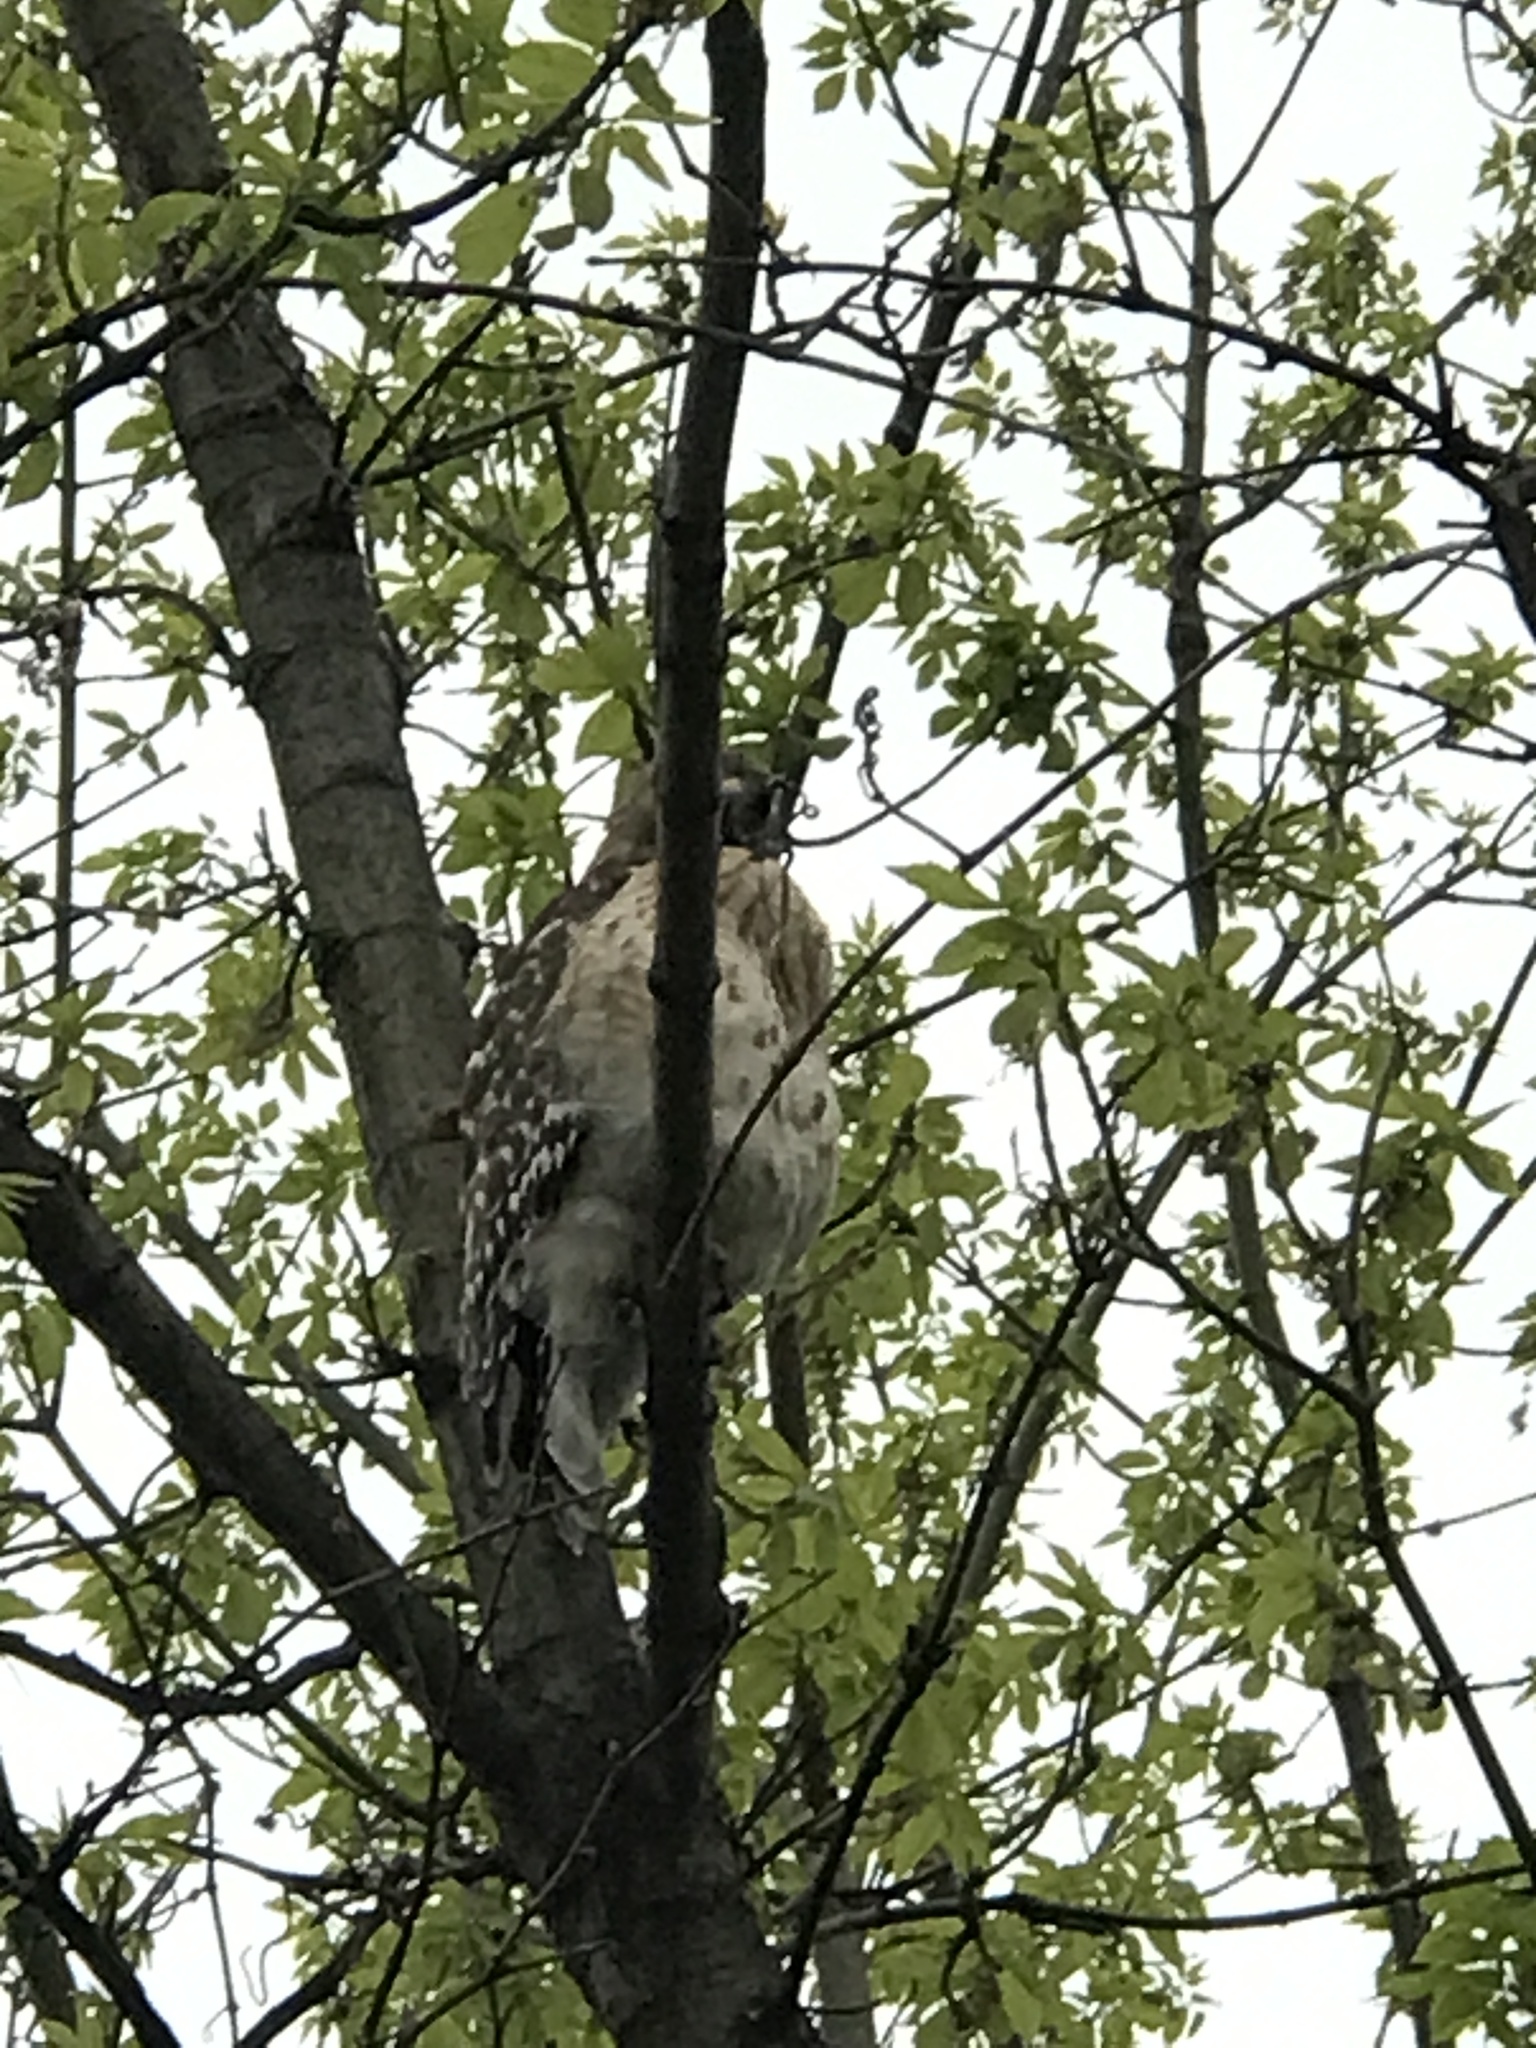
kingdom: Animalia
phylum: Chordata
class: Aves
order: Accipitriformes
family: Accipitridae
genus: Buteo
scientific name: Buteo lineatus
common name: Red-shouldered hawk
